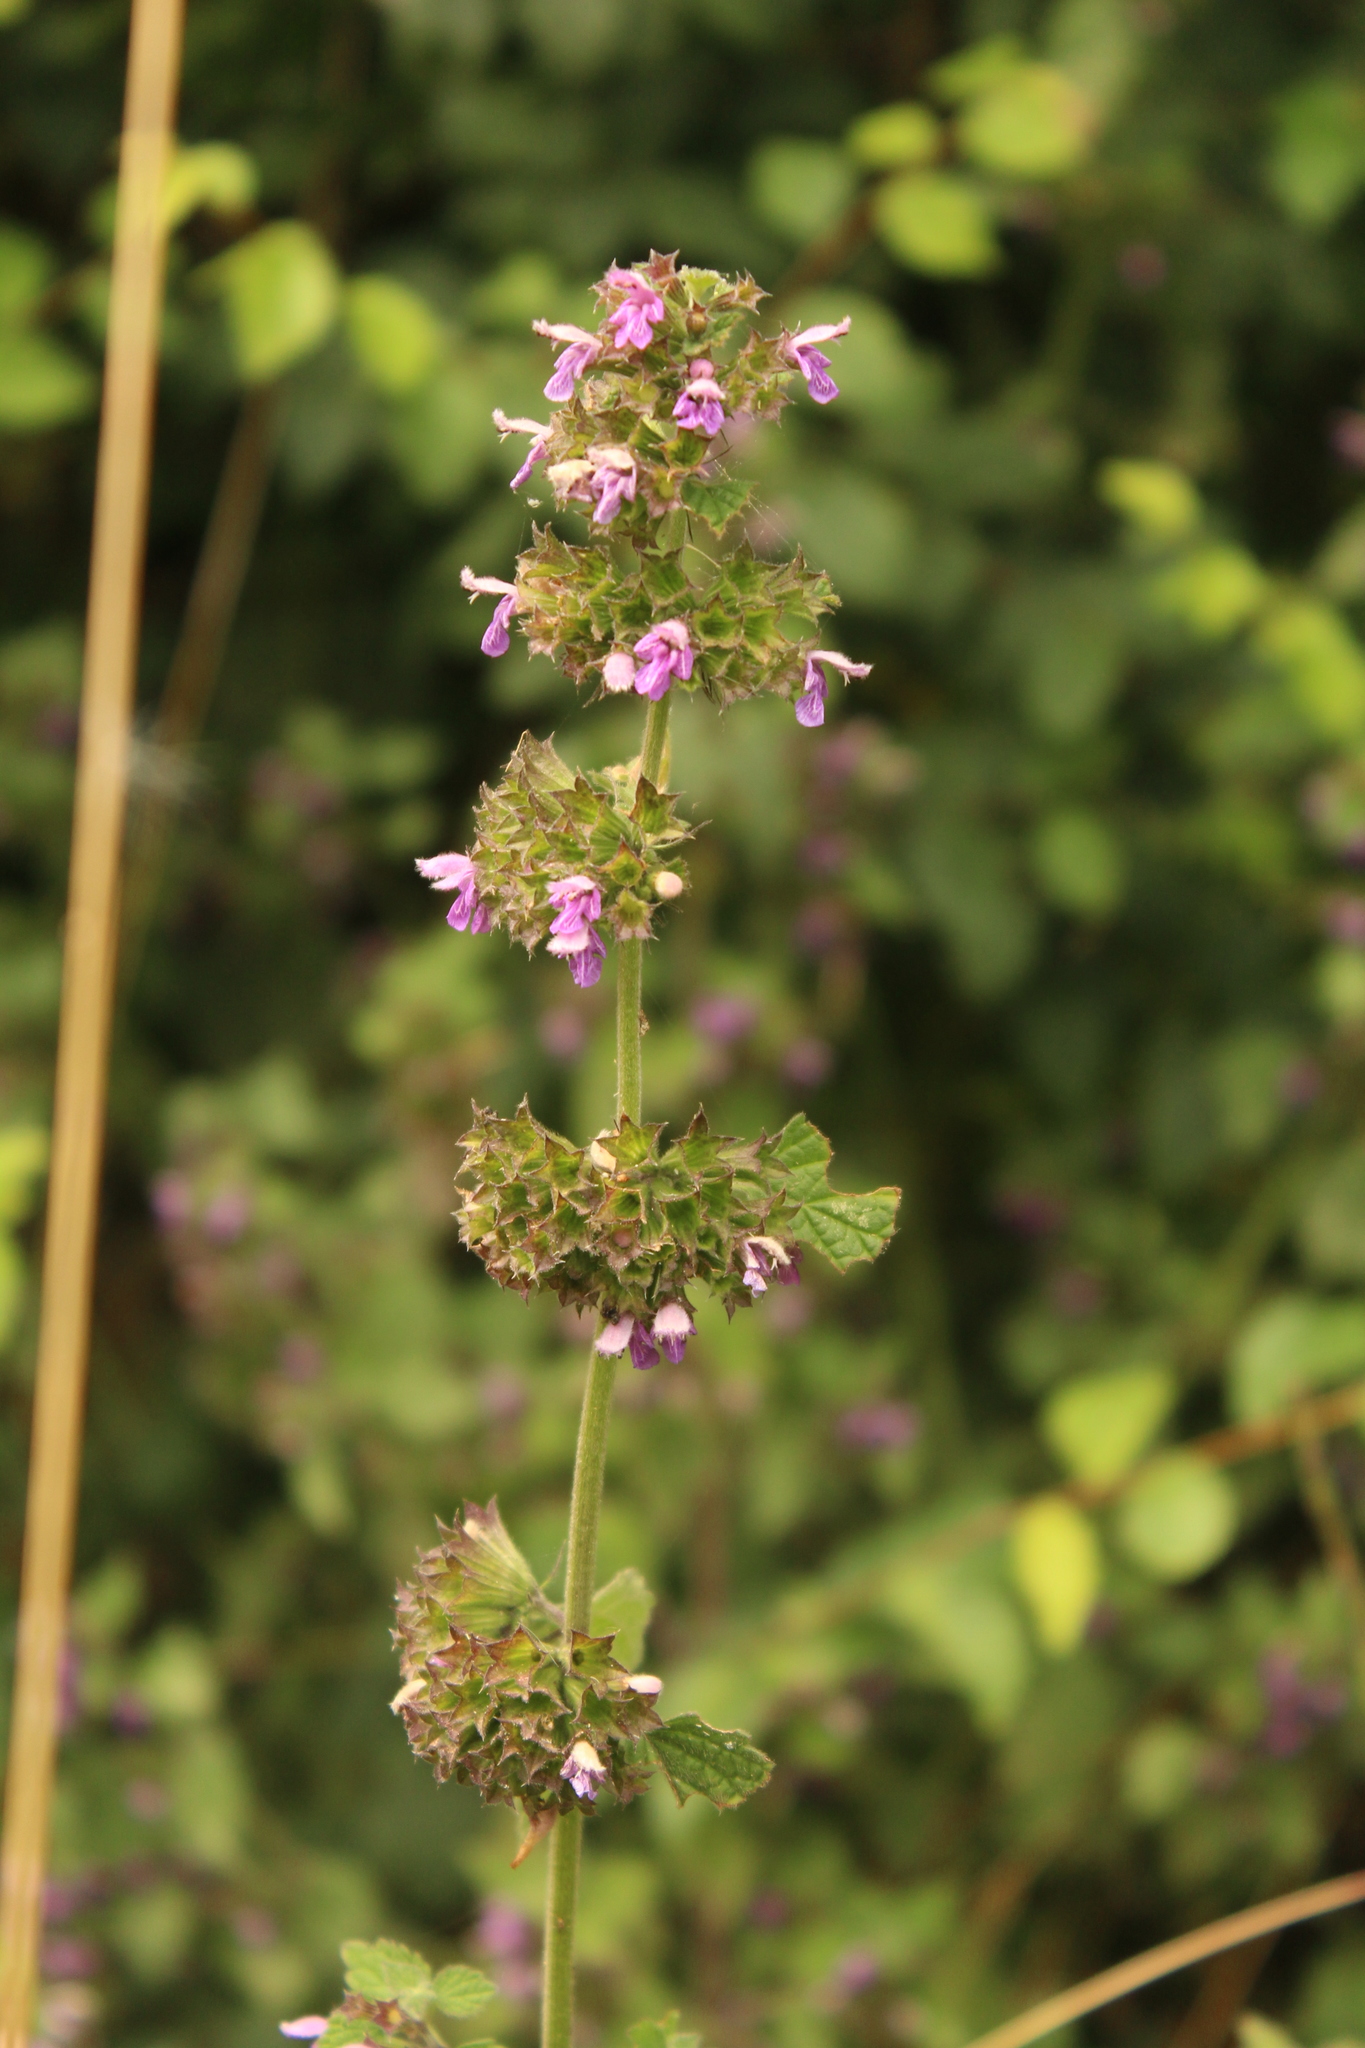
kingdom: Plantae
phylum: Tracheophyta
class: Magnoliopsida
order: Lamiales
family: Lamiaceae
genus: Ballota
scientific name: Ballota nigra
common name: Black horehound
